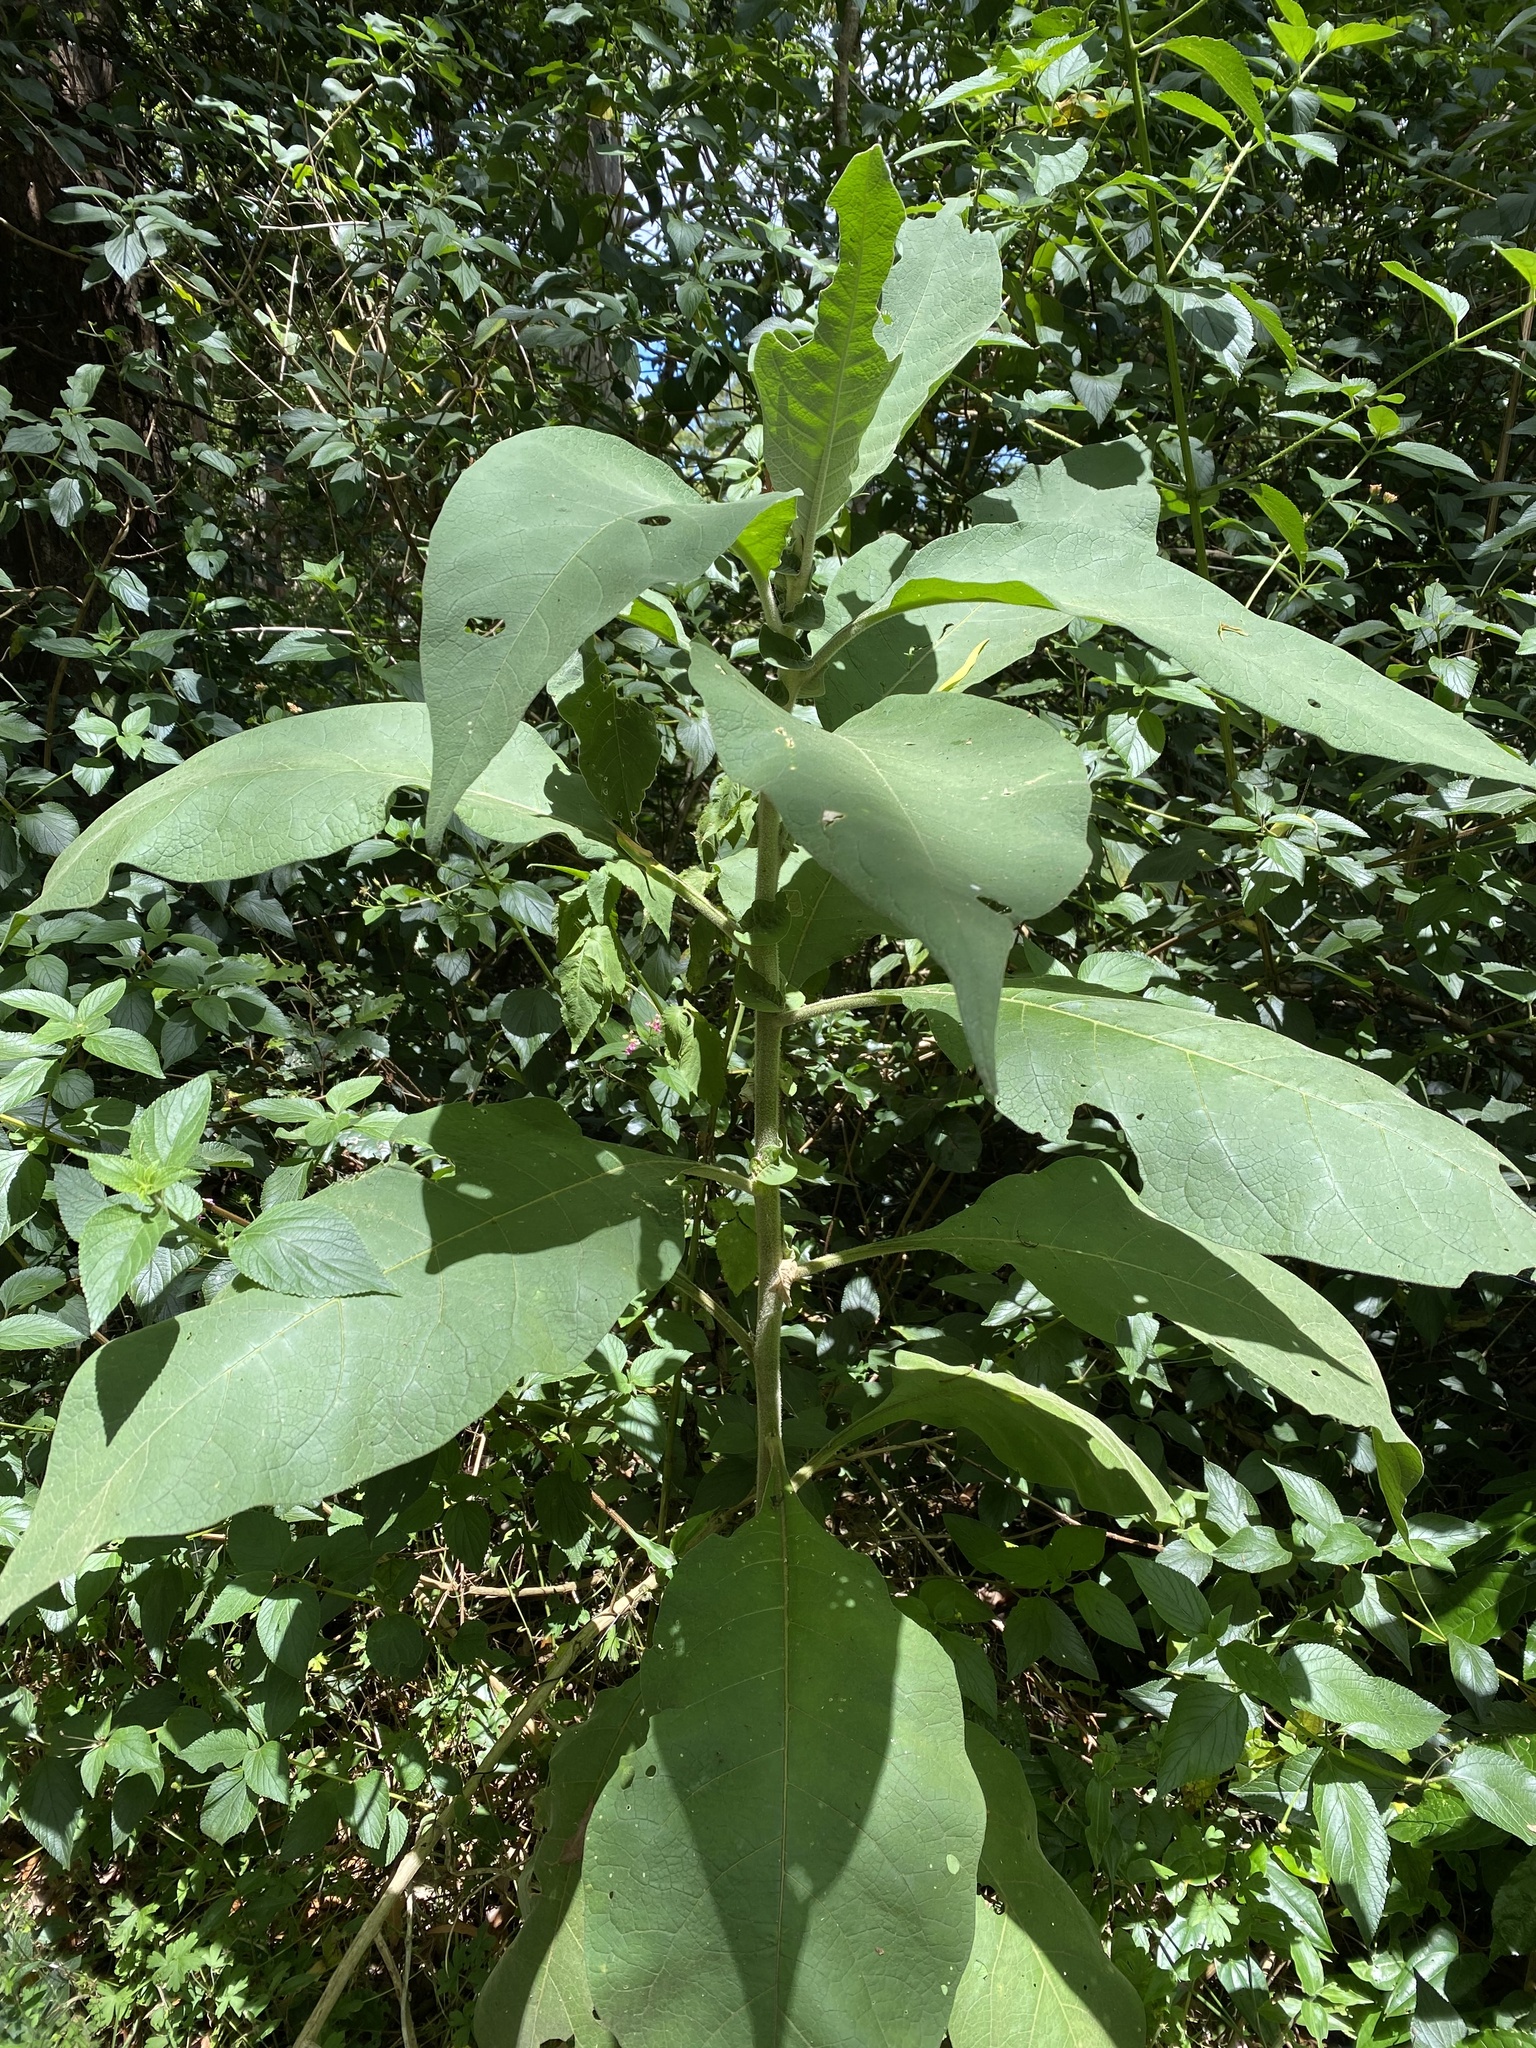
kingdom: Plantae
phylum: Tracheophyta
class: Magnoliopsida
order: Solanales
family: Solanaceae
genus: Solanum
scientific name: Solanum mauritianum
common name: Earleaf nightshade
